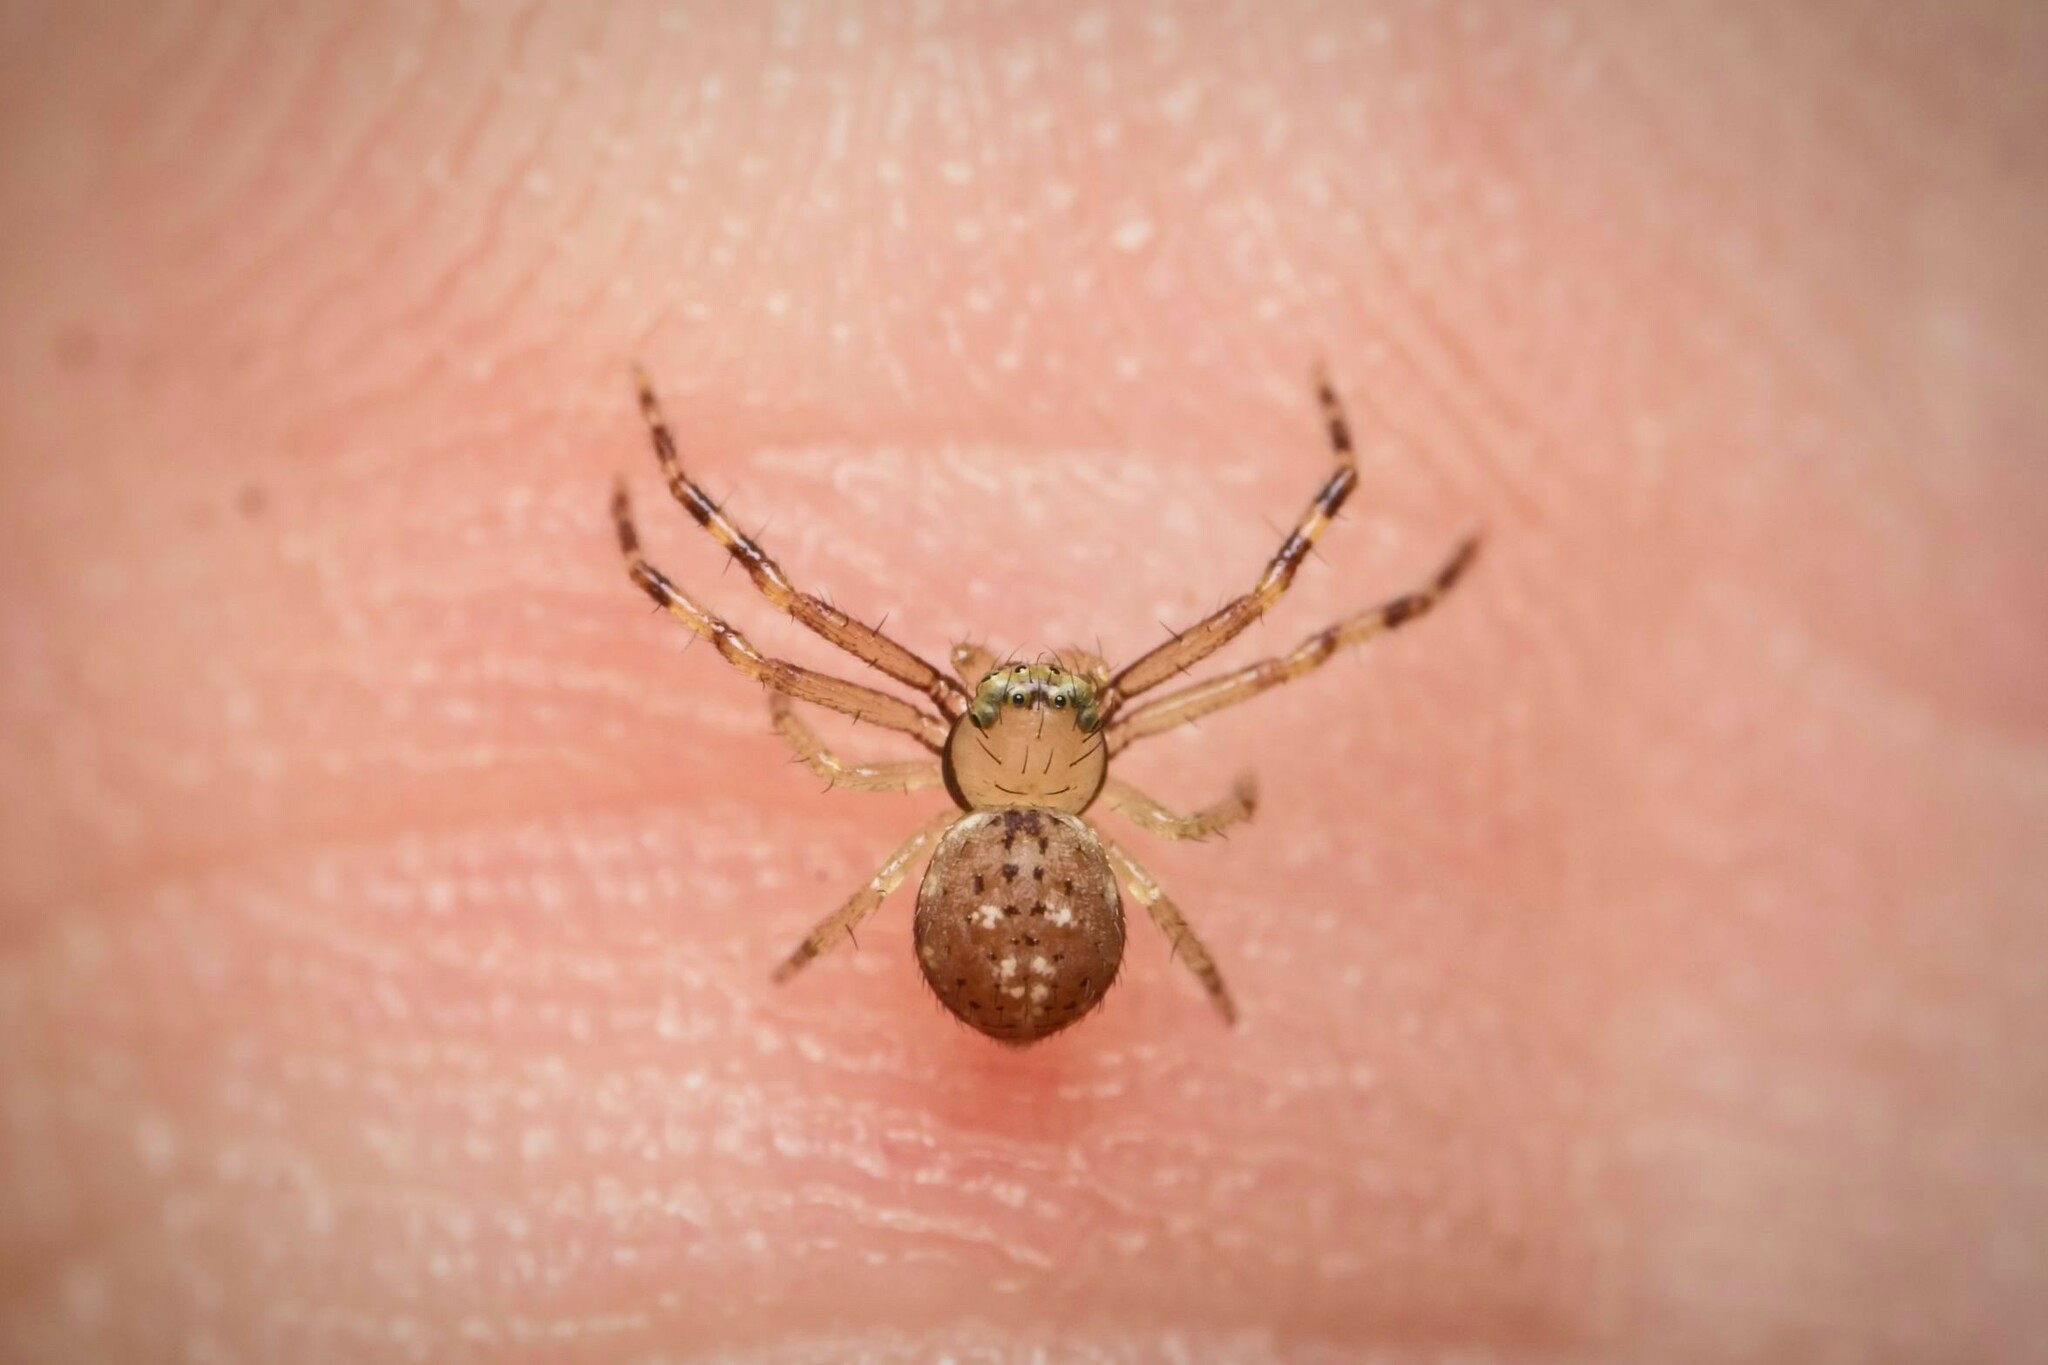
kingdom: Animalia
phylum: Arthropoda
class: Arachnida
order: Araneae
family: Thomisidae
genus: Diaea
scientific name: Diaea ambara
